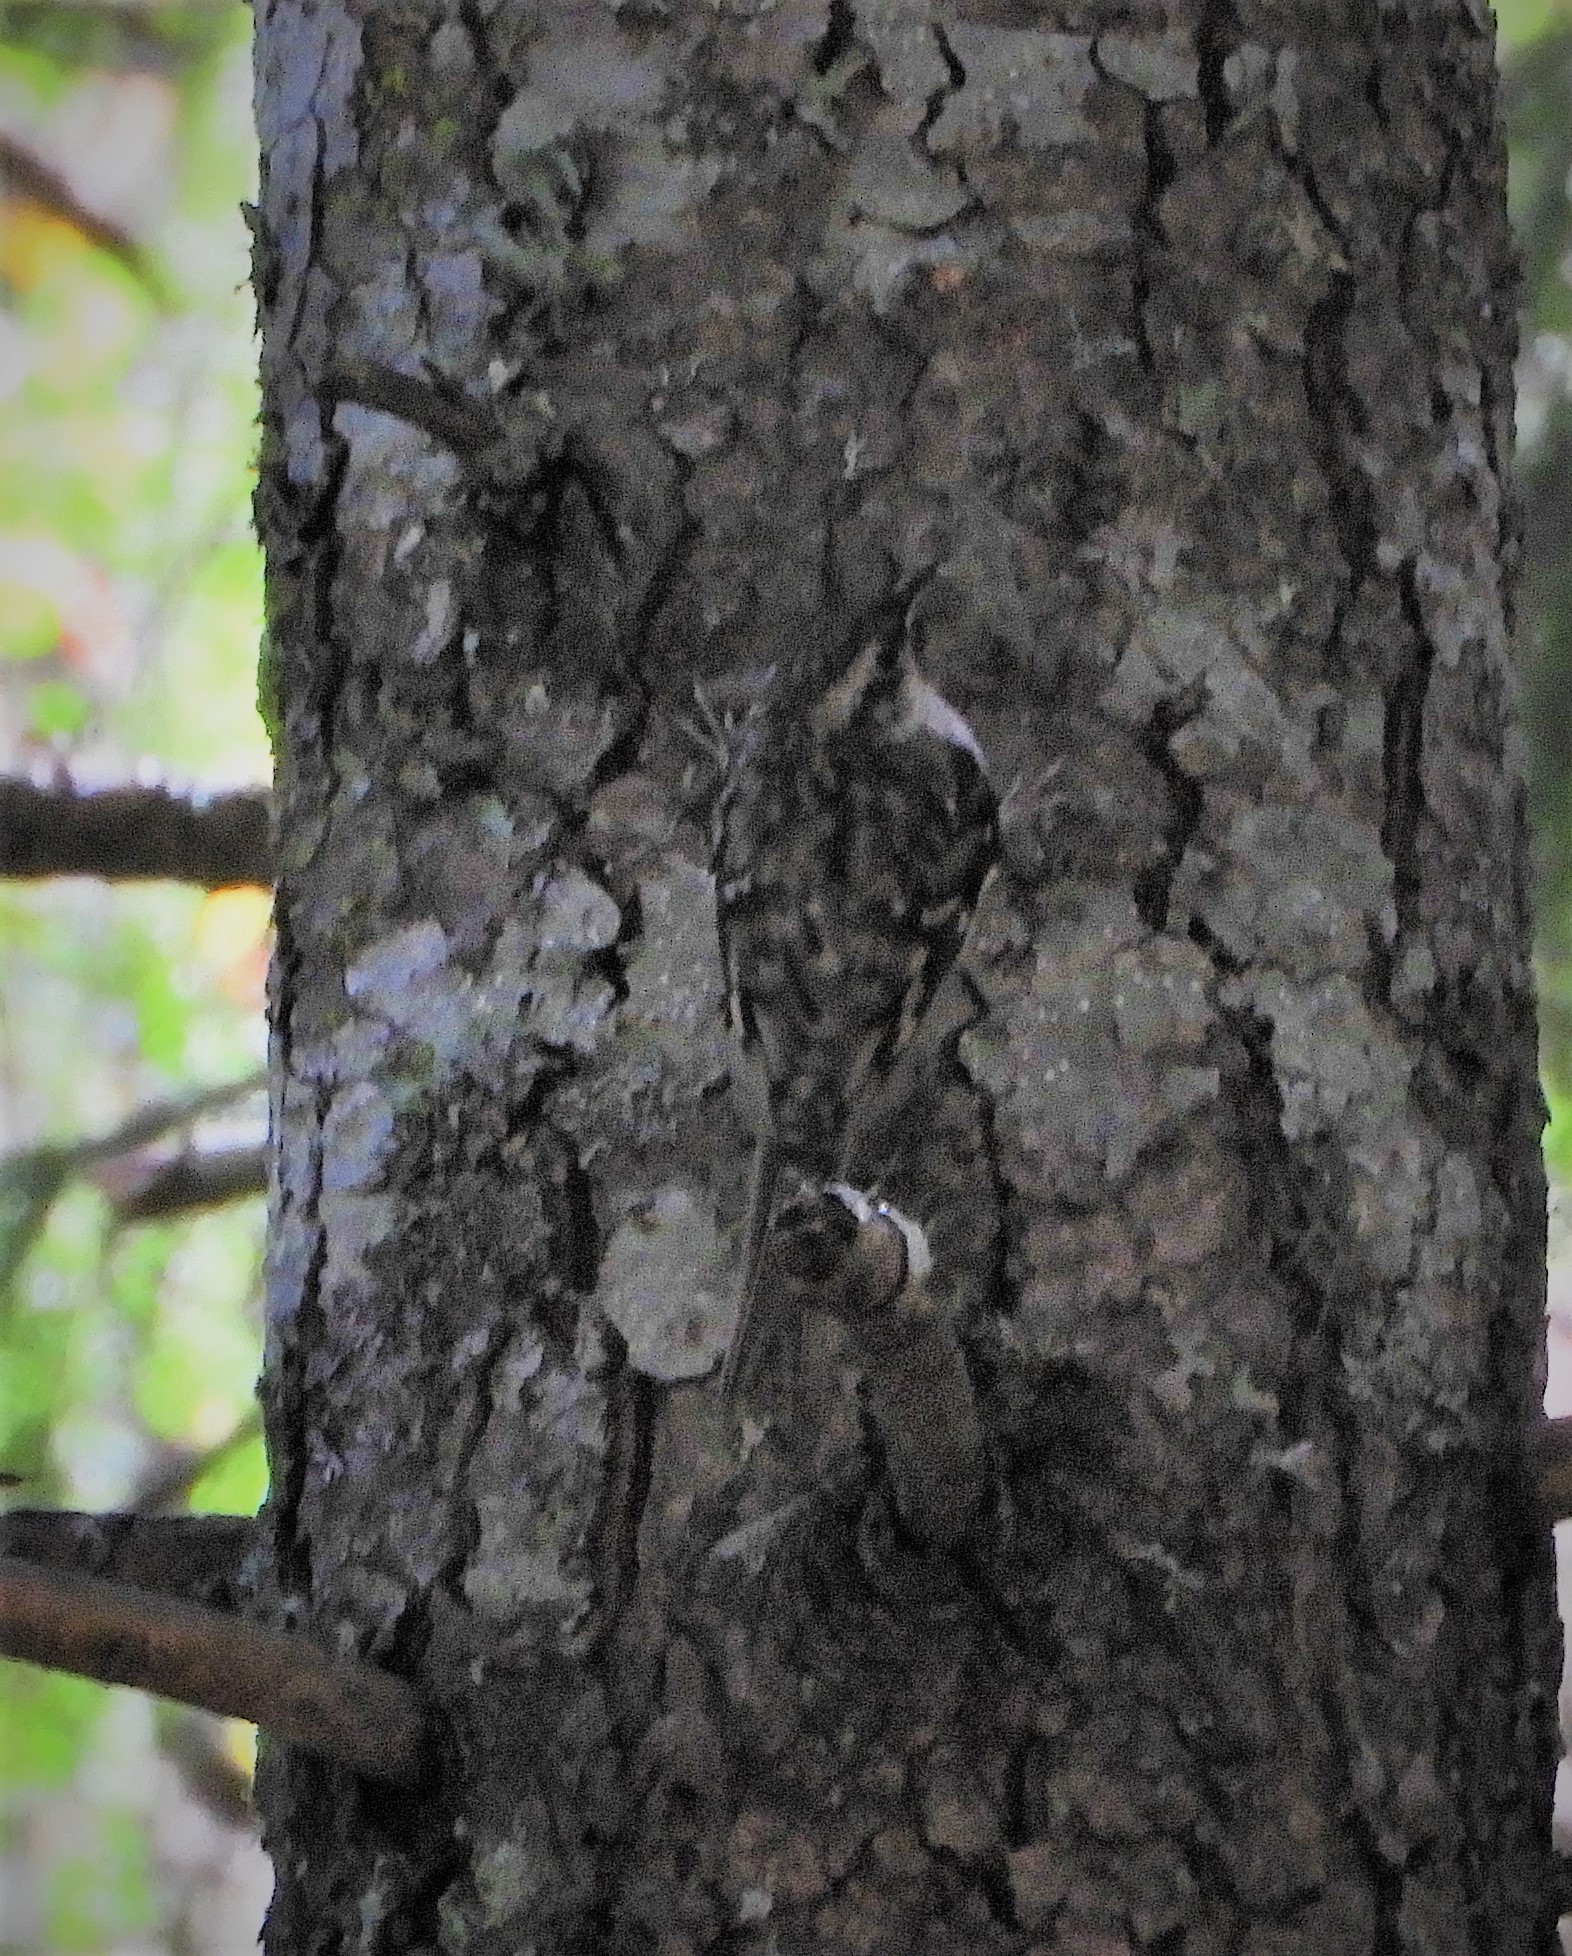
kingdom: Animalia
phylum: Chordata
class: Aves
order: Passeriformes
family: Certhiidae
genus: Certhia
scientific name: Certhia americana
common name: Brown creeper
